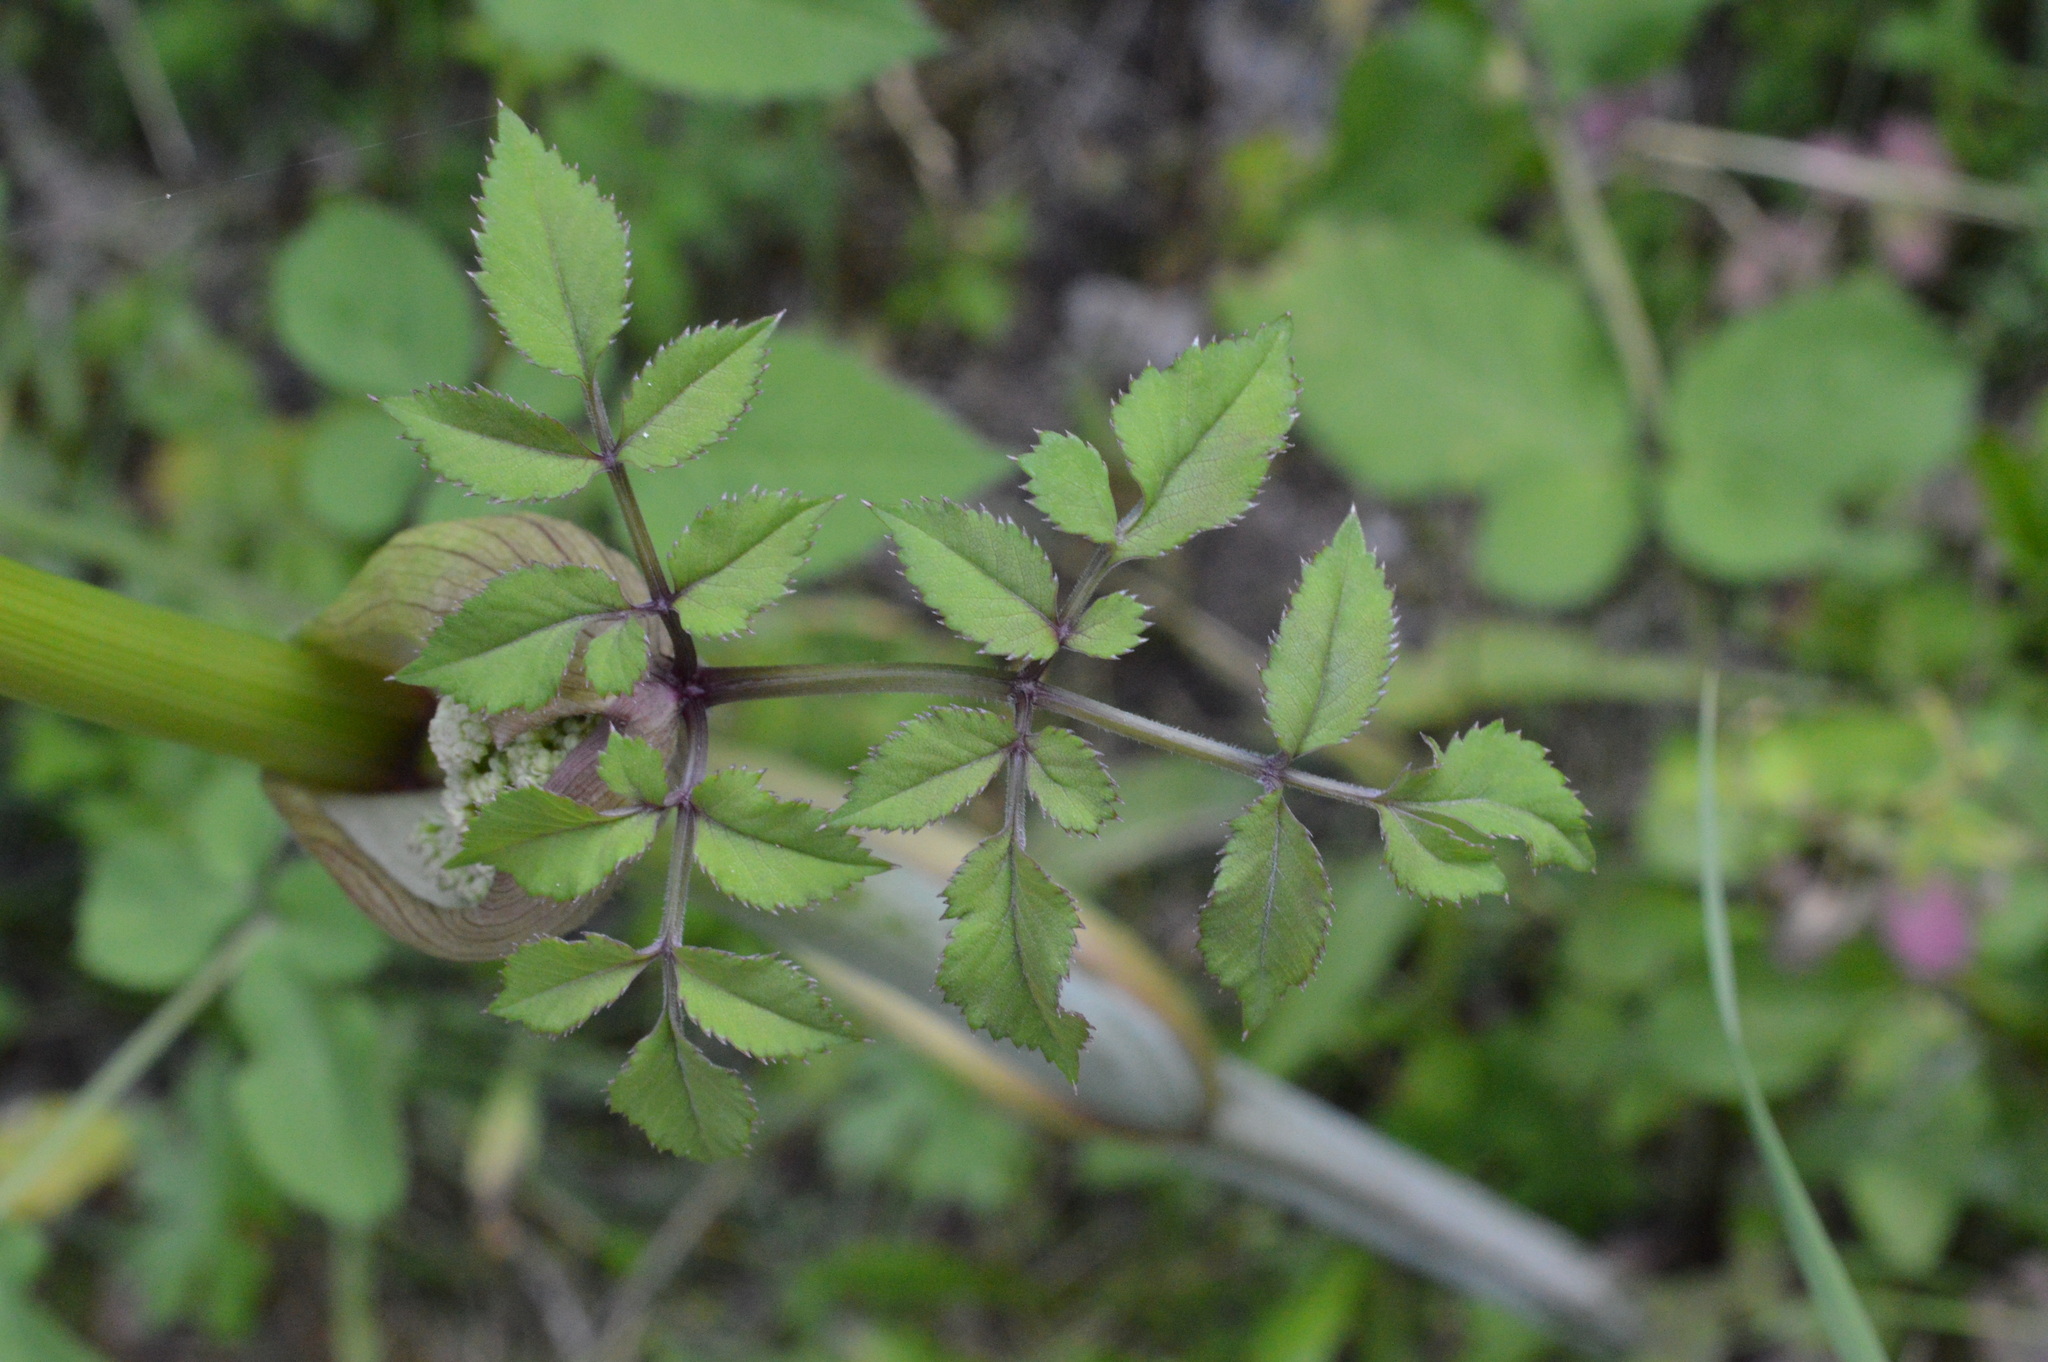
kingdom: Plantae
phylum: Tracheophyta
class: Magnoliopsida
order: Apiales
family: Apiaceae
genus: Angelica
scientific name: Angelica sylvestris
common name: Wild angelica
